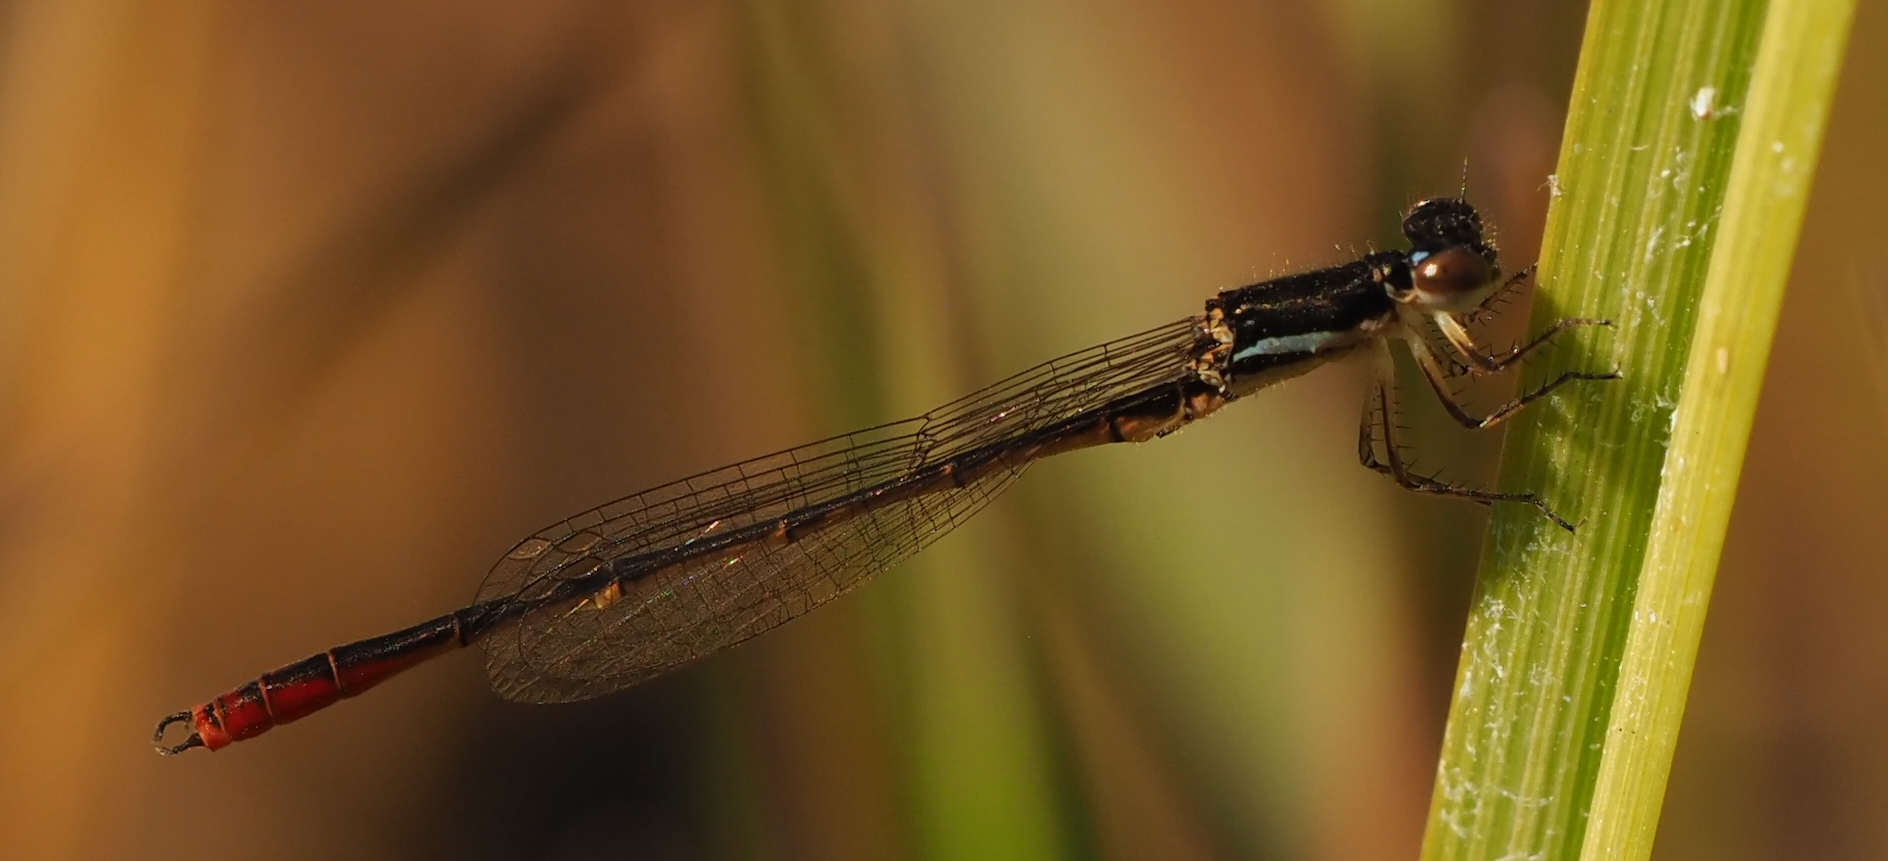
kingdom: Animalia
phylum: Arthropoda
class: Insecta
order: Odonata
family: Coenagrionidae
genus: Agriocnemis
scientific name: Agriocnemis victoria
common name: Lesser pincer-tailed wisp
